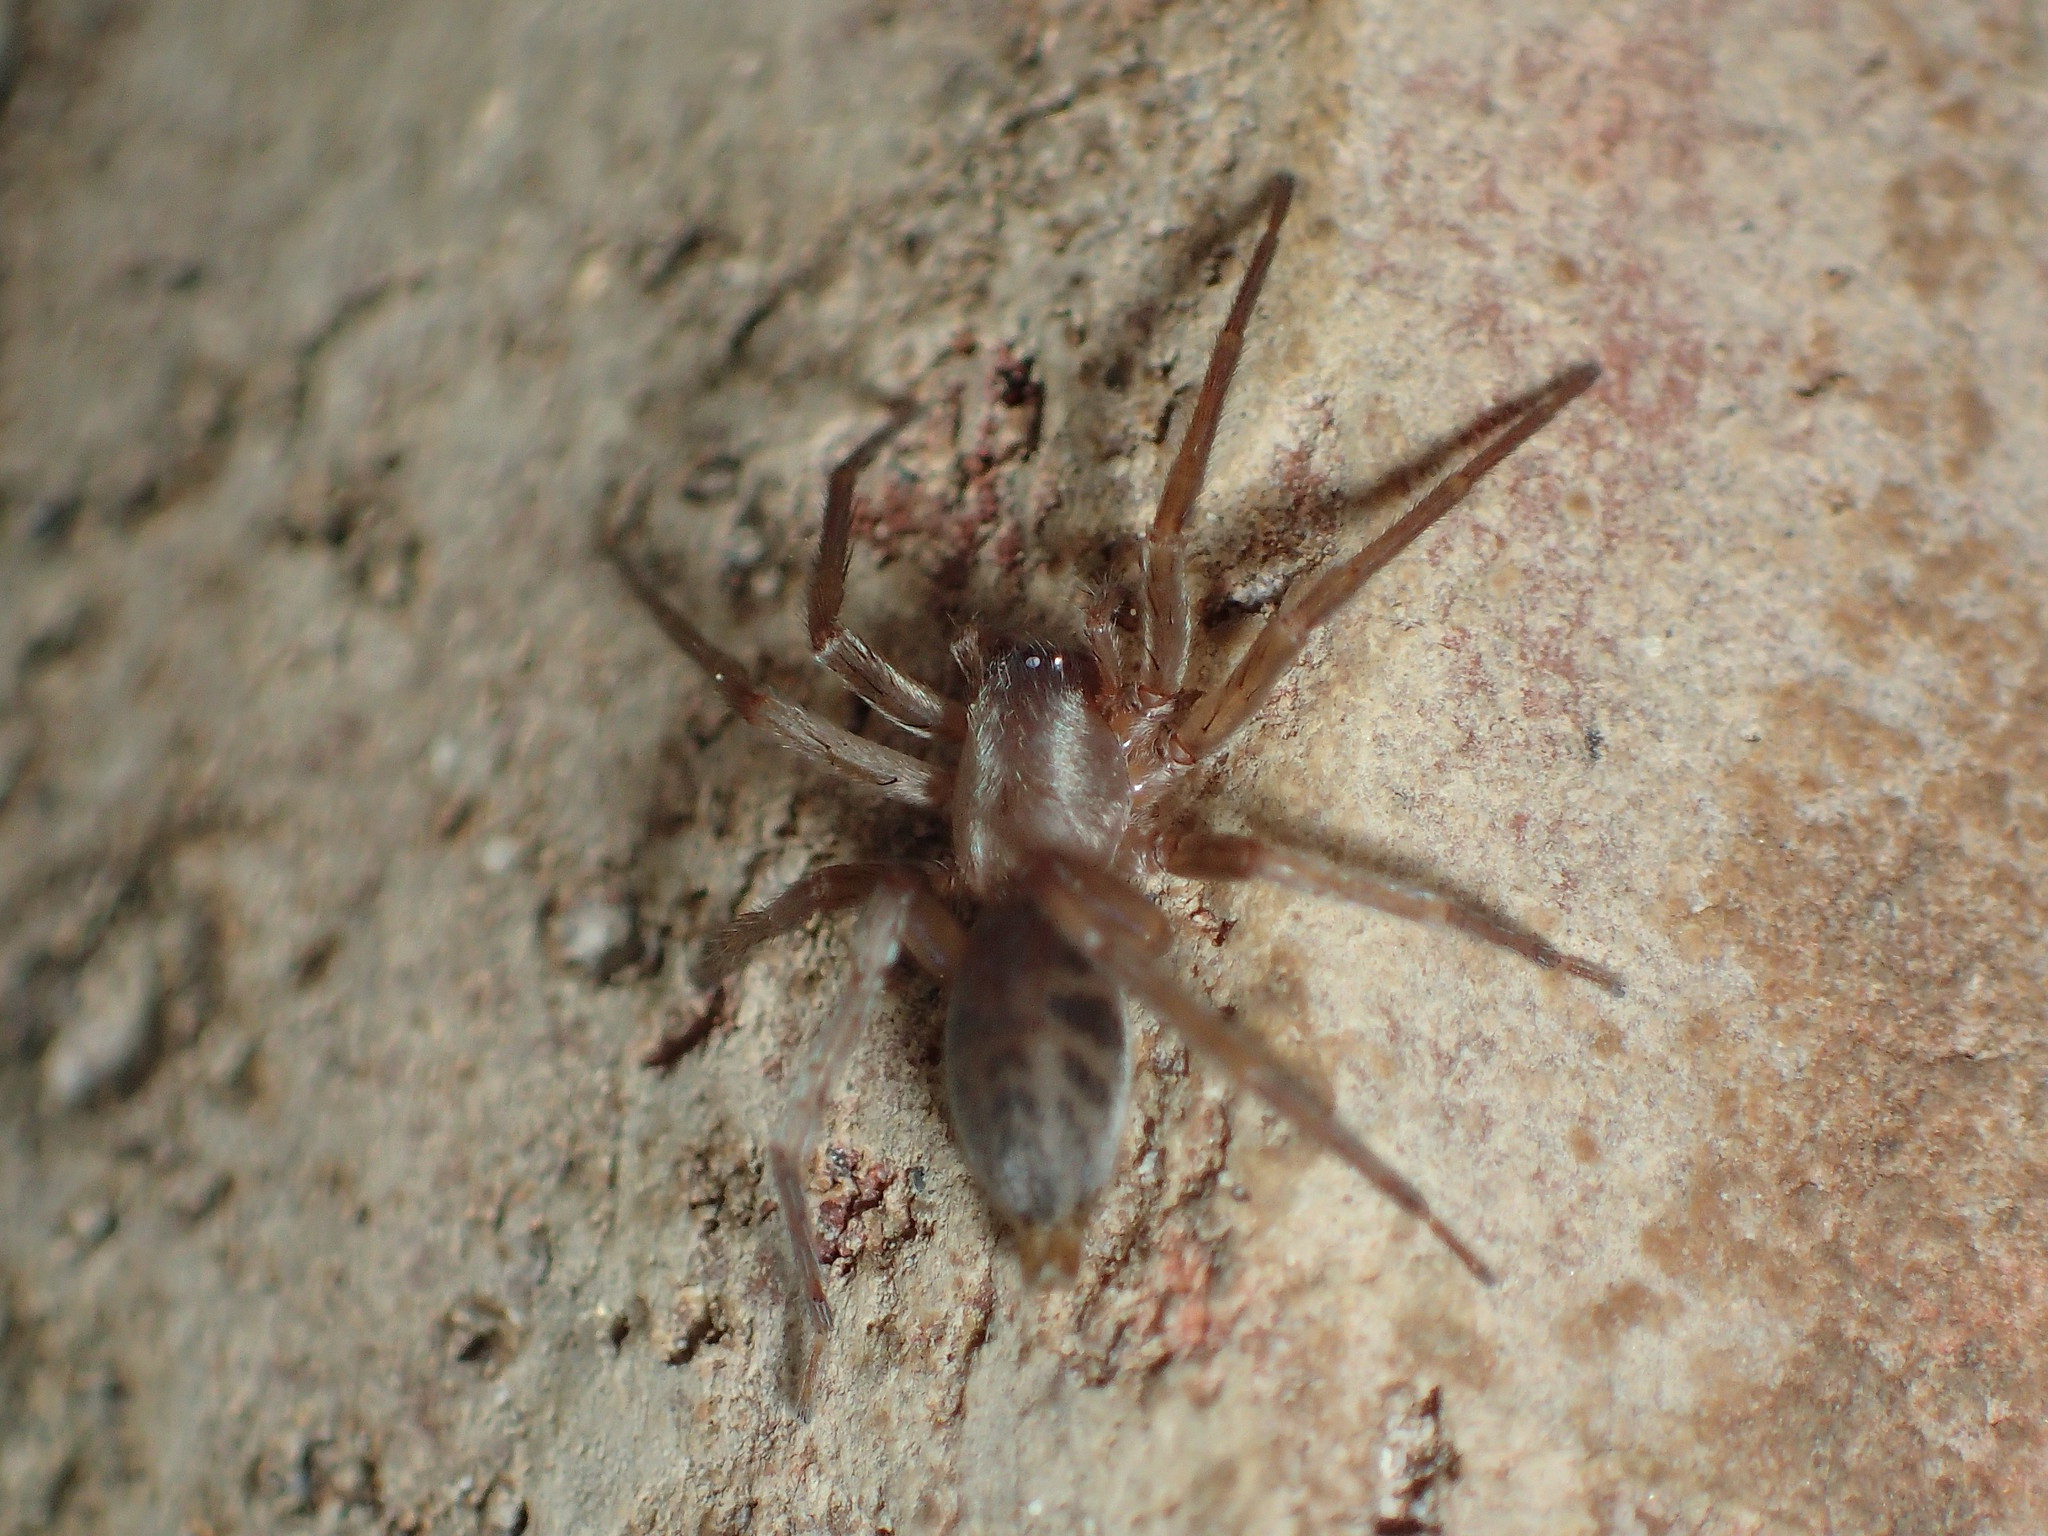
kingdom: Animalia
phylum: Arthropoda
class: Arachnida
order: Araneae
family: Clubionidae
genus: Elaver
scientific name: Elaver excepta
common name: White sac spider
